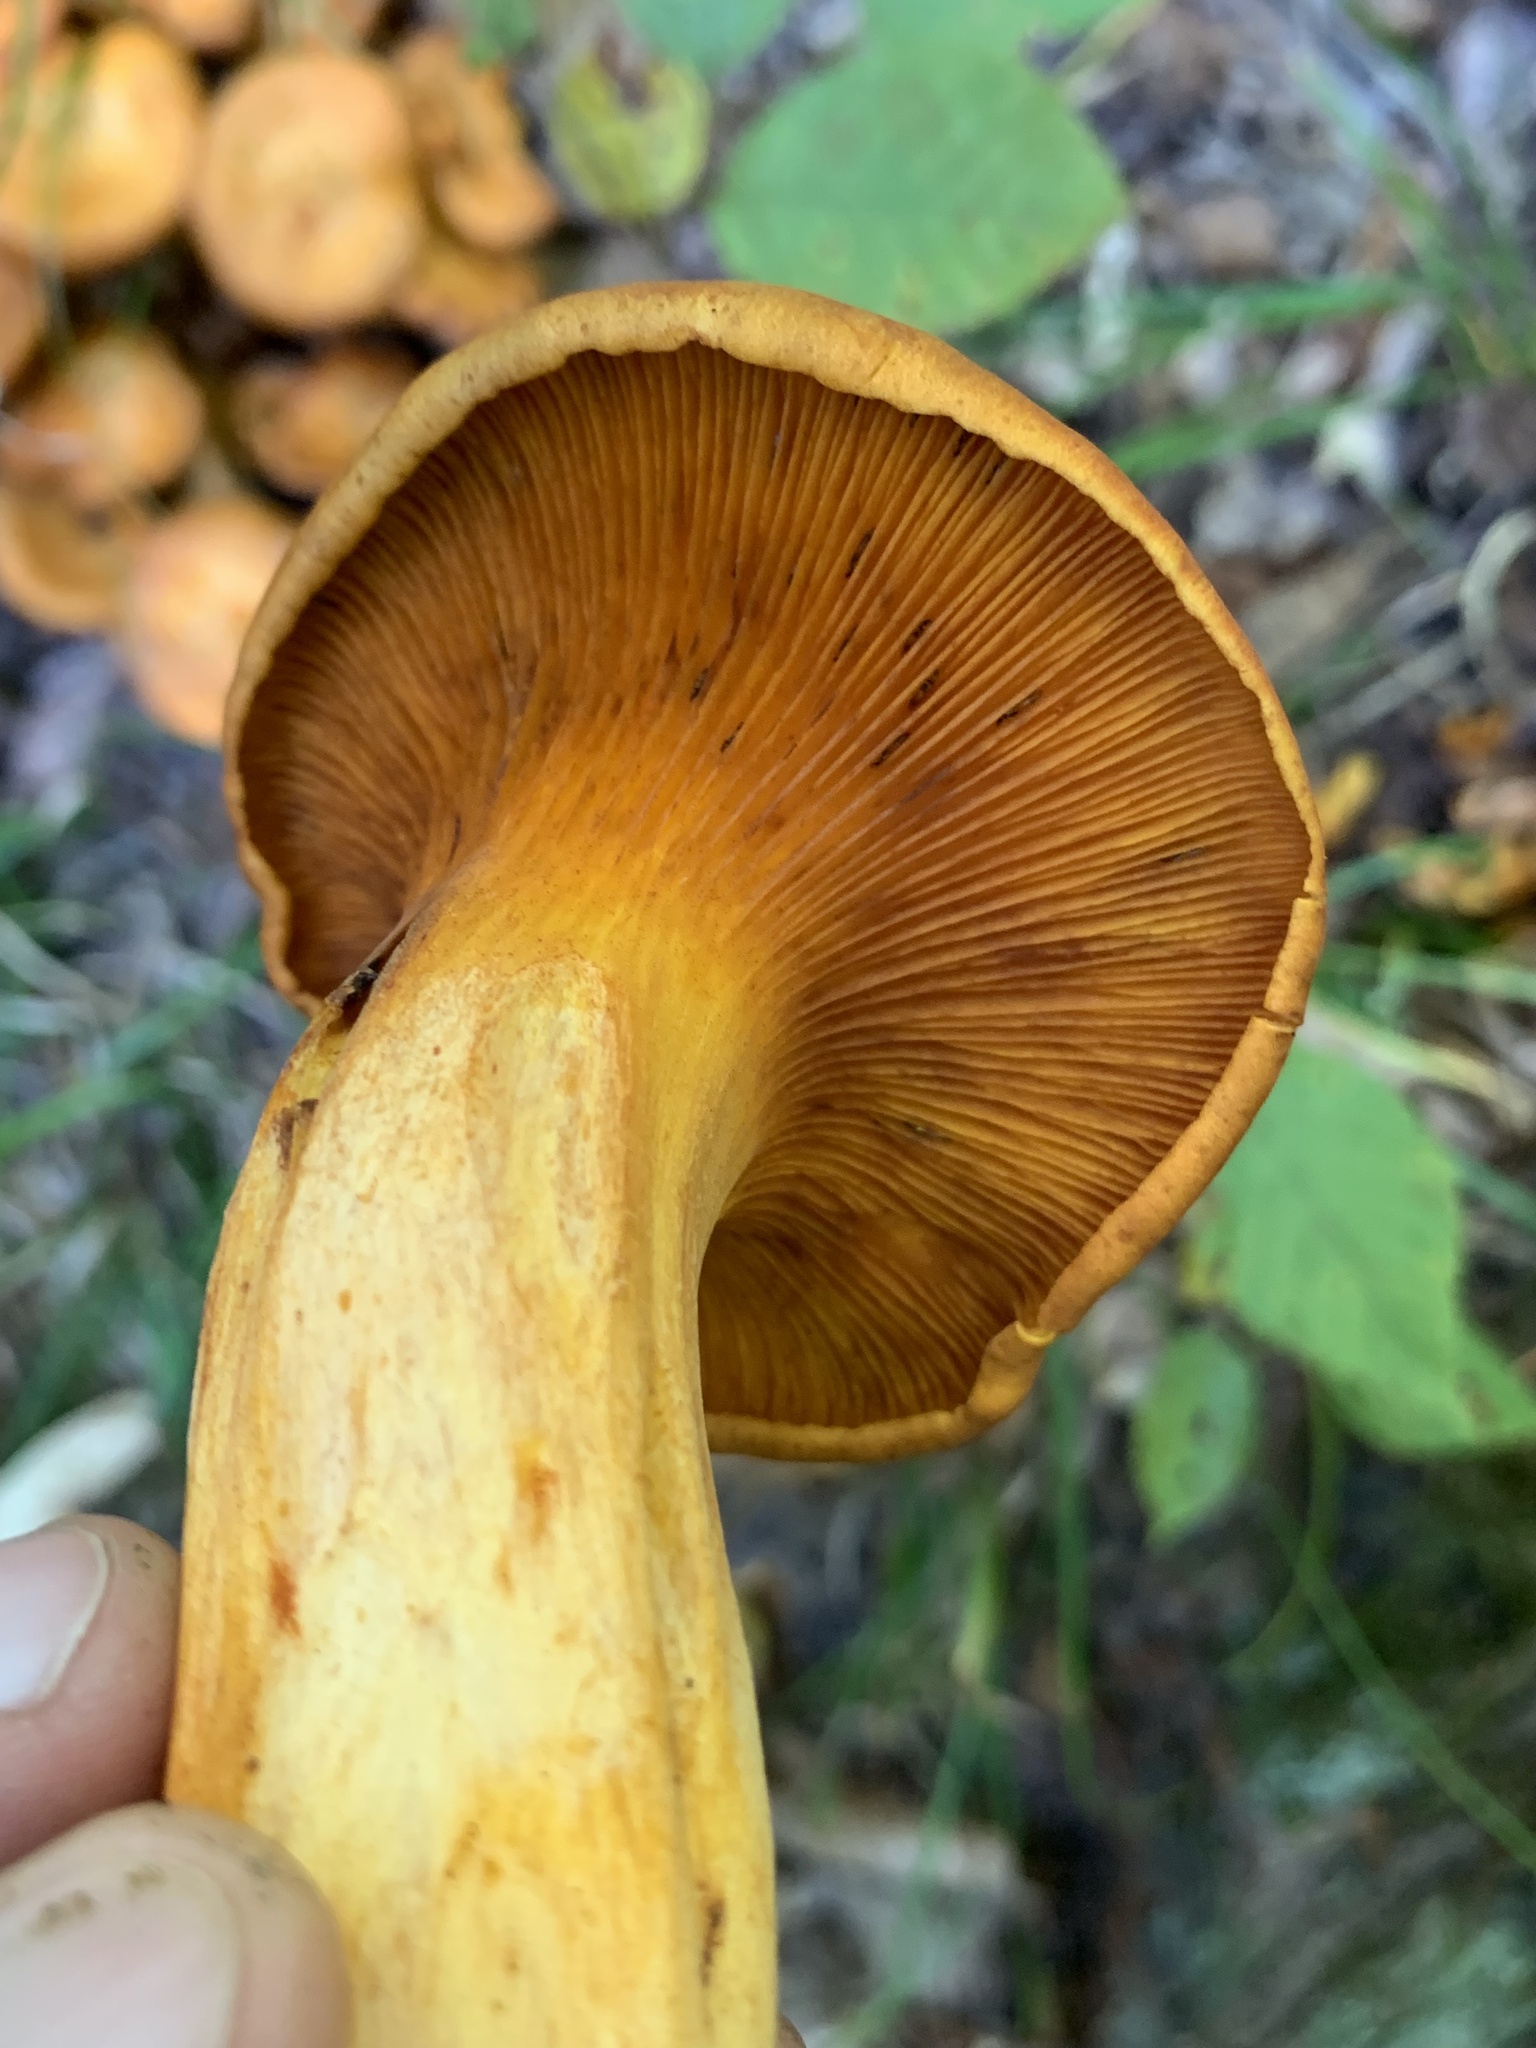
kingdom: Fungi
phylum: Basidiomycota
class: Agaricomycetes
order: Agaricales
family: Omphalotaceae
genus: Omphalotus
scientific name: Omphalotus illudens
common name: Jack o lantern
